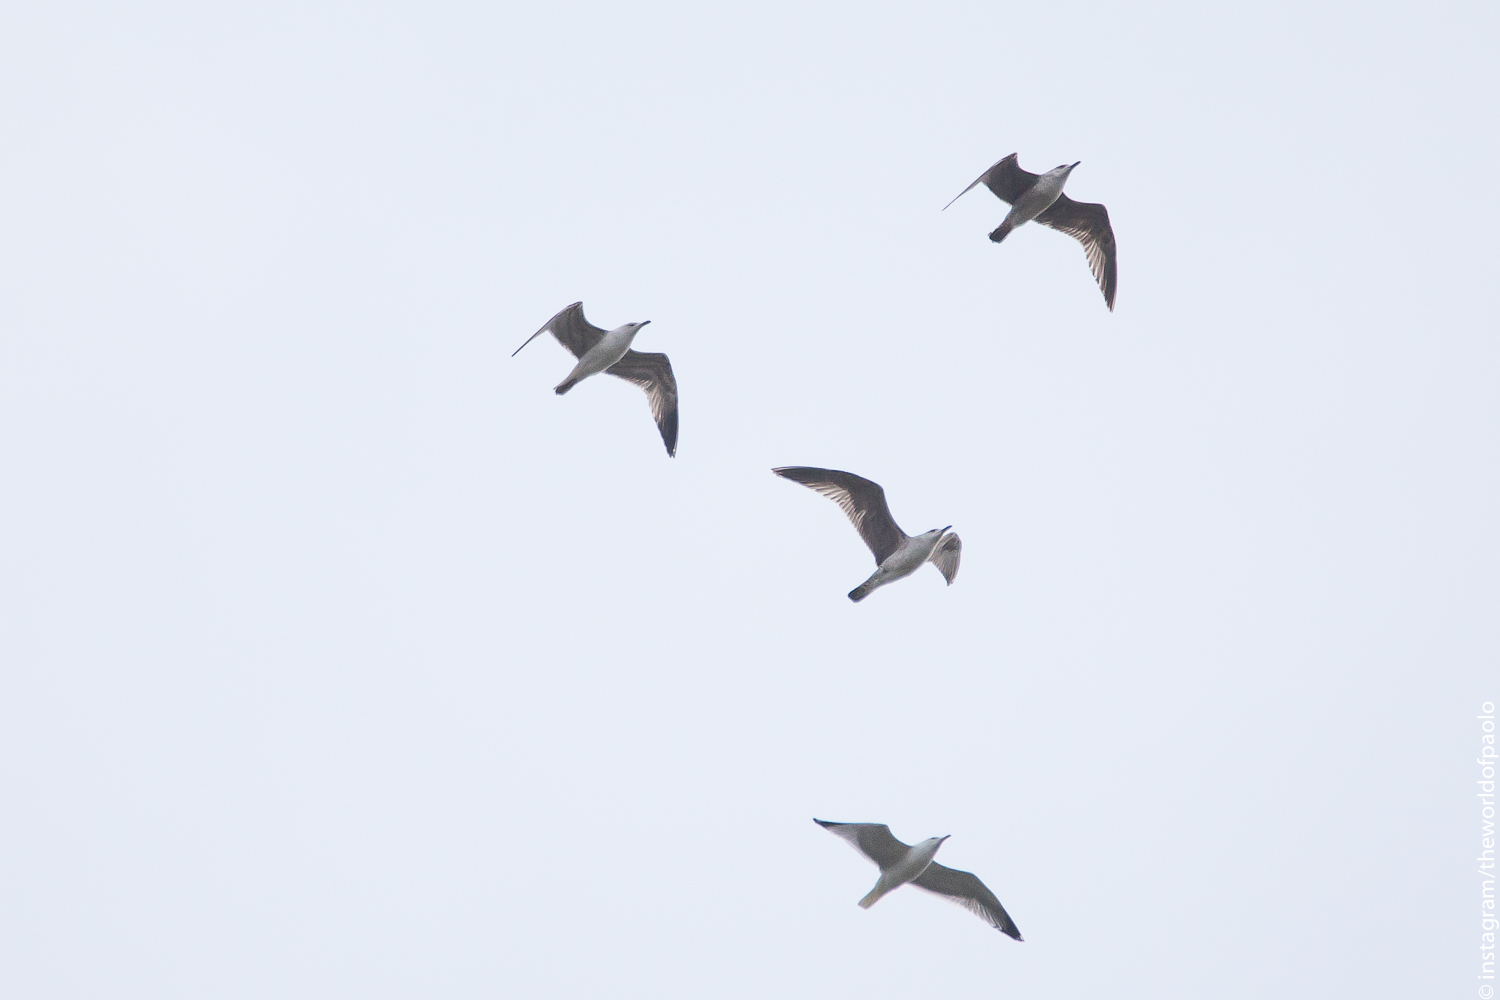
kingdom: Animalia
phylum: Chordata
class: Aves
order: Charadriiformes
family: Laridae
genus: Larus
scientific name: Larus michahellis
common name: Yellow-legged gull
